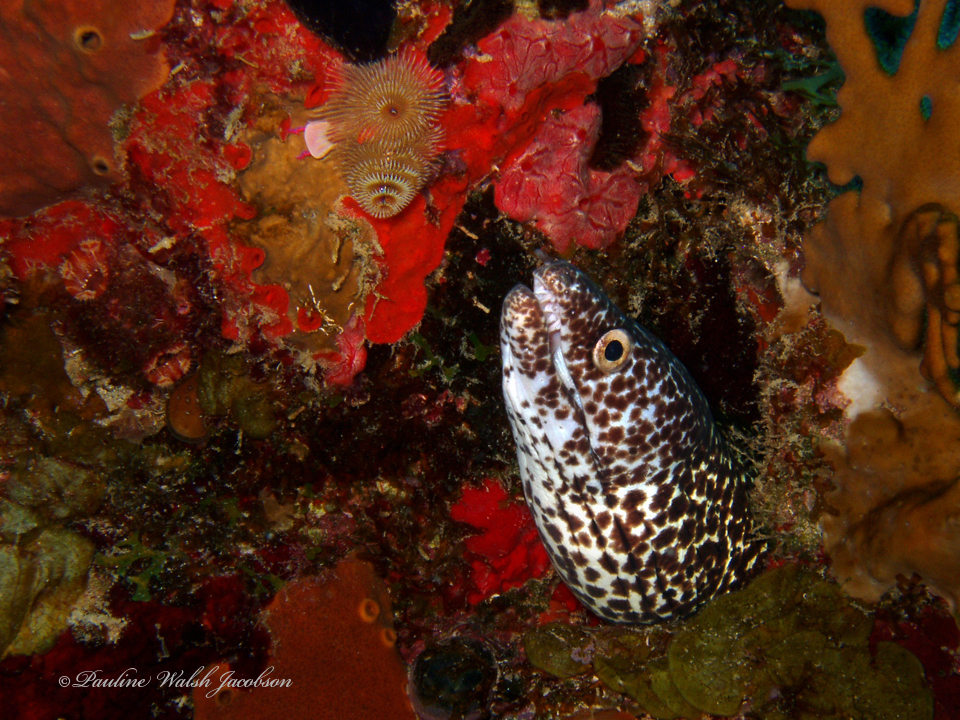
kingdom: Animalia
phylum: Chordata
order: Anguilliformes
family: Muraenidae
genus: Gymnothorax
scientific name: Gymnothorax moringa
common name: Spotted moray
